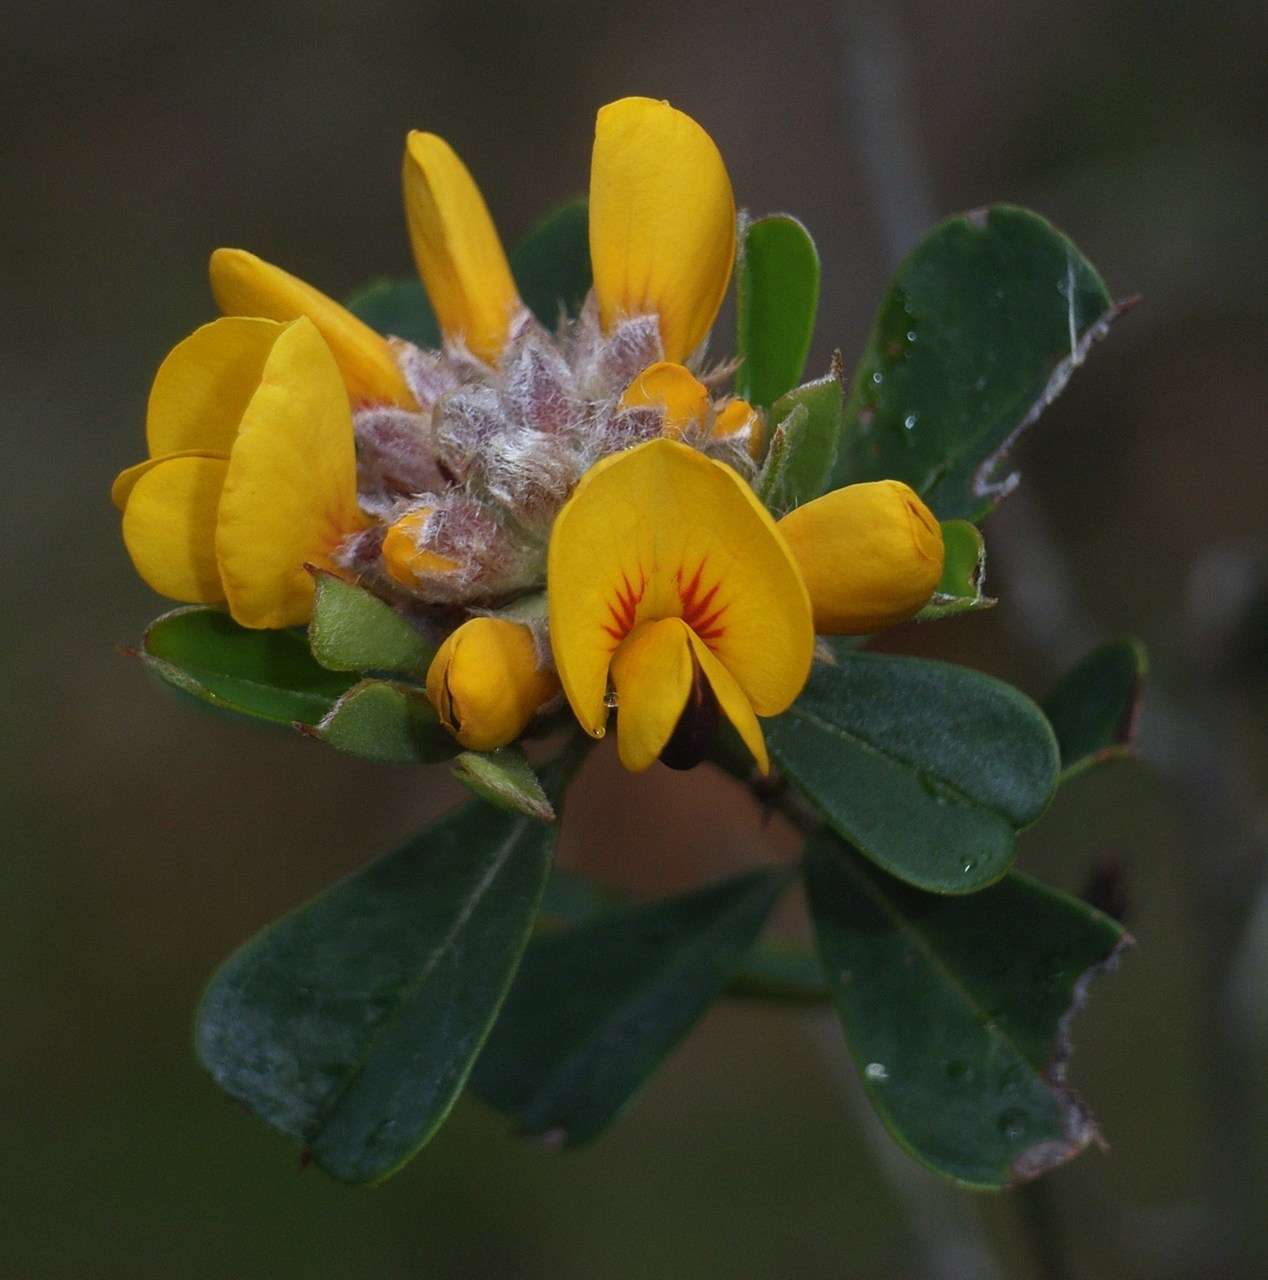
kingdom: Plantae
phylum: Tracheophyta
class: Magnoliopsida
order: Fabales
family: Fabaceae
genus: Pultenaea
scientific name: Pultenaea daphnoides
